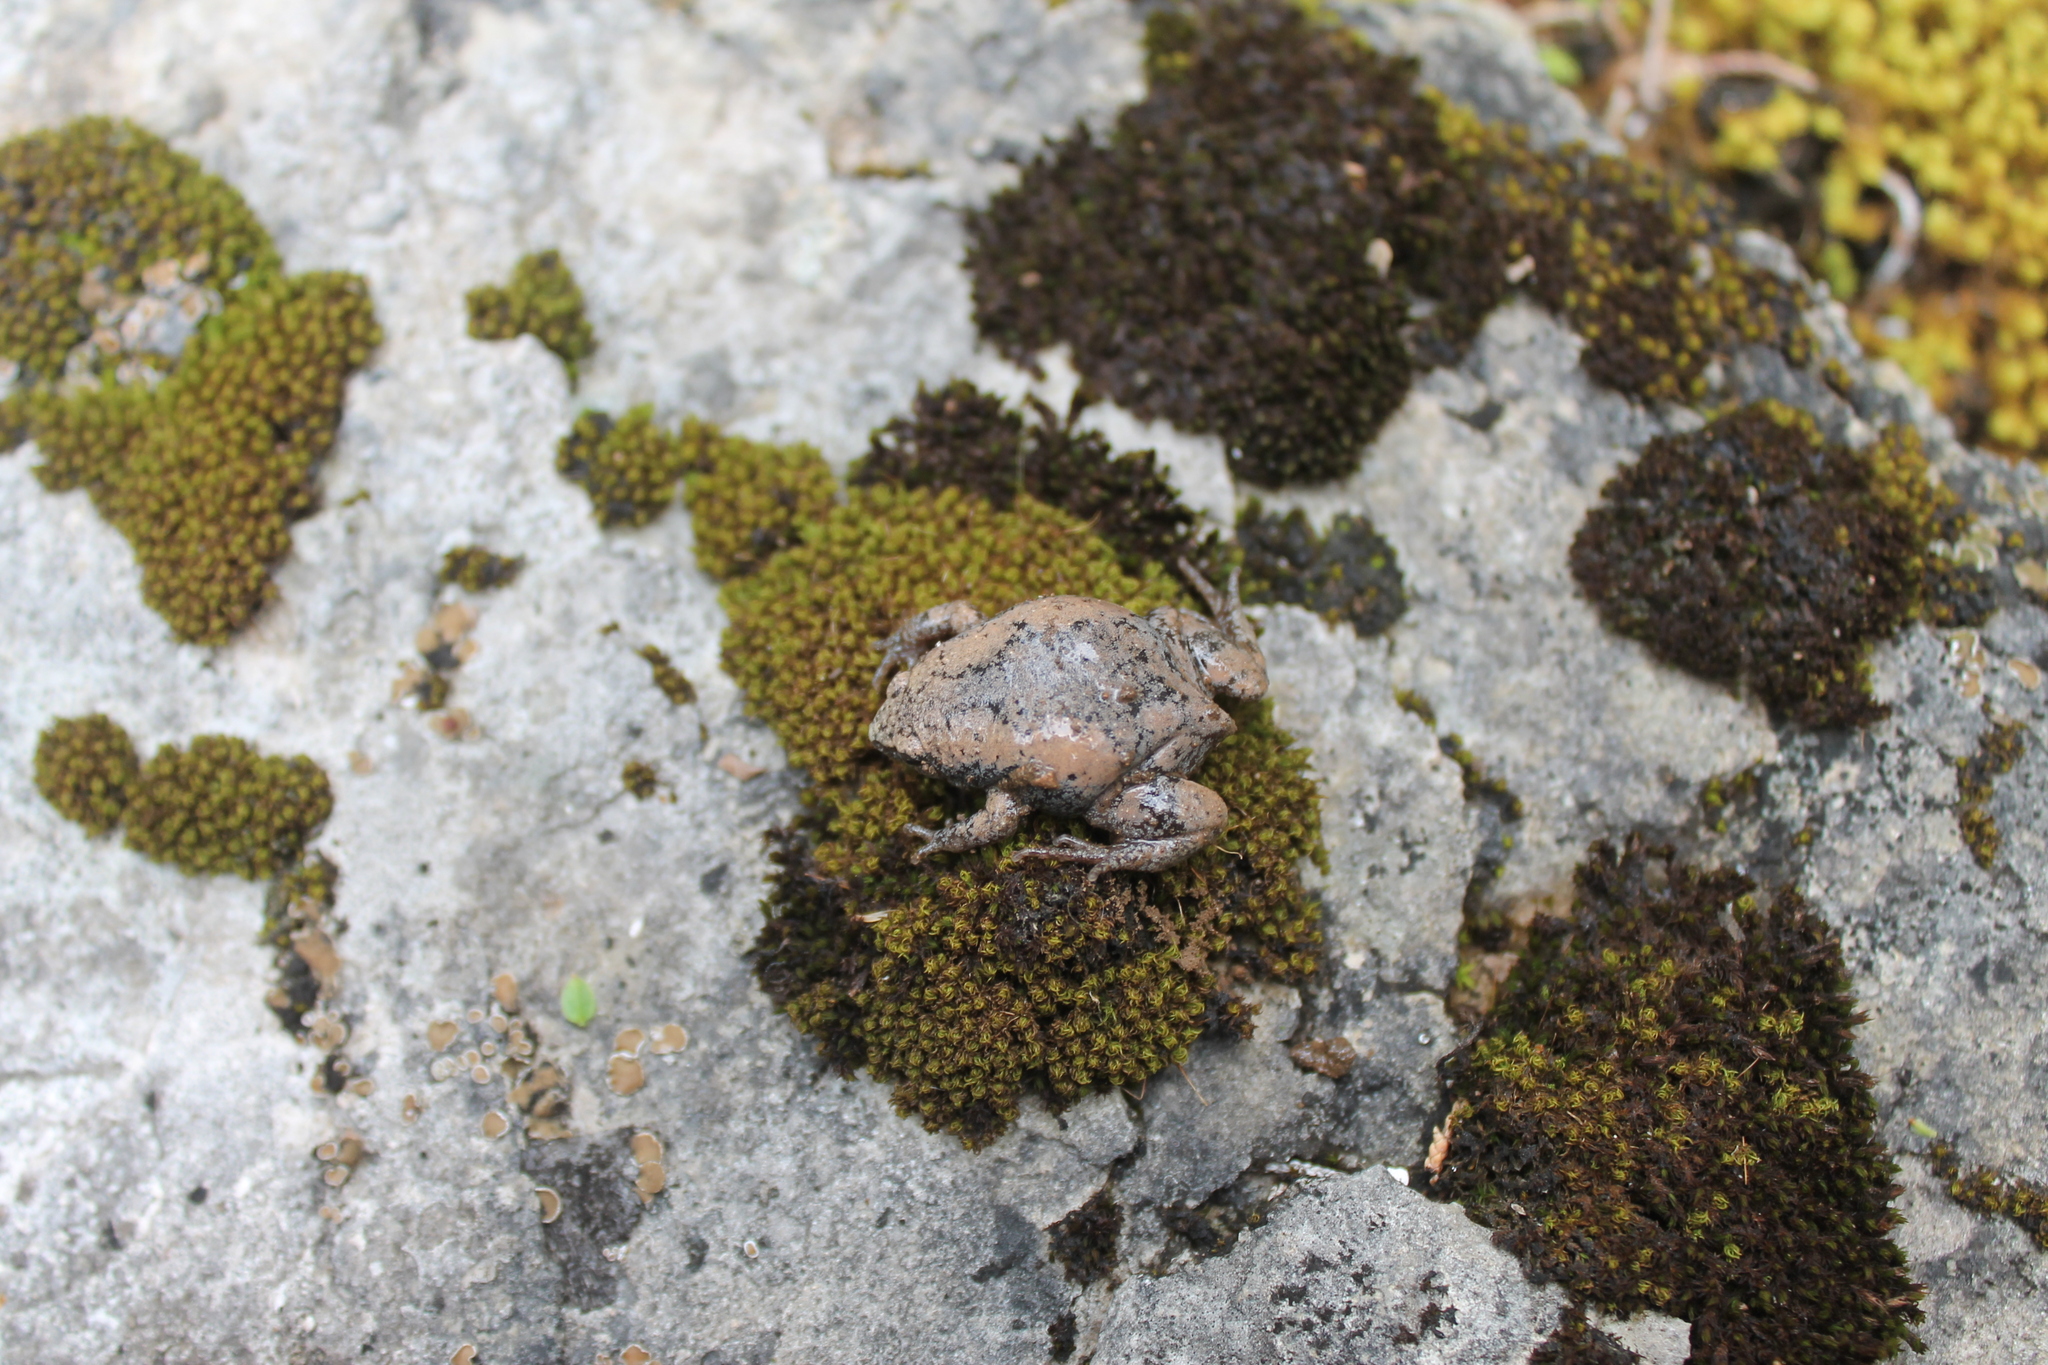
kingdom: Animalia
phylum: Chordata
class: Amphibia
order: Anura
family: Microhylidae
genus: Gastrophryne
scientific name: Gastrophryne carolinensis
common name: Eastern narrowmouth toad
